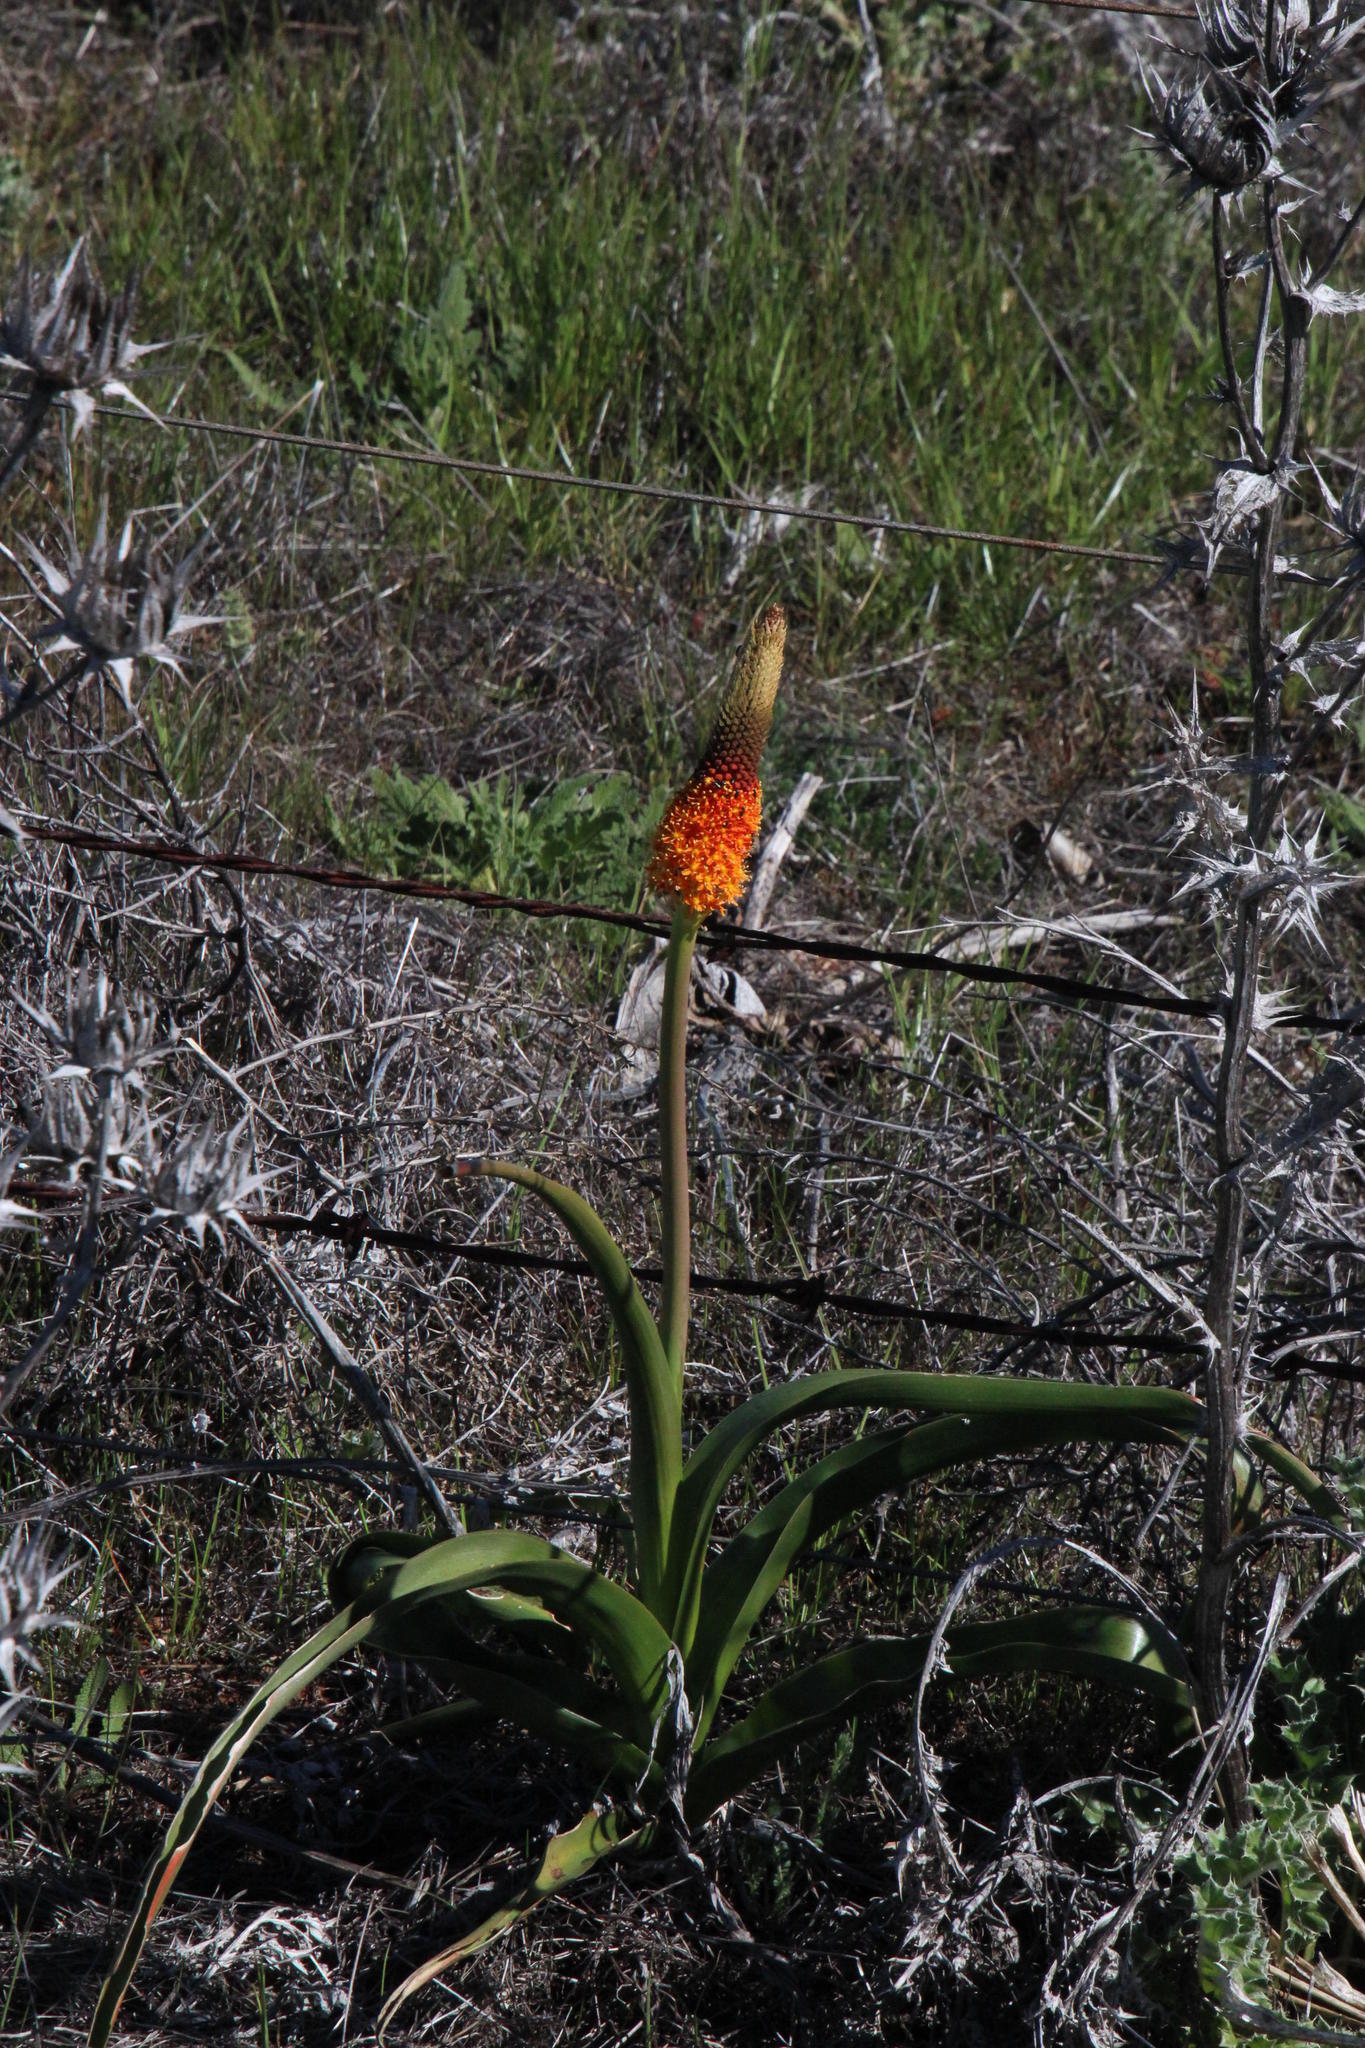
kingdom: Plantae
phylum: Tracheophyta
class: Liliopsida
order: Asparagales
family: Asphodelaceae
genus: Bulbinella
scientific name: Bulbinella latifolia
